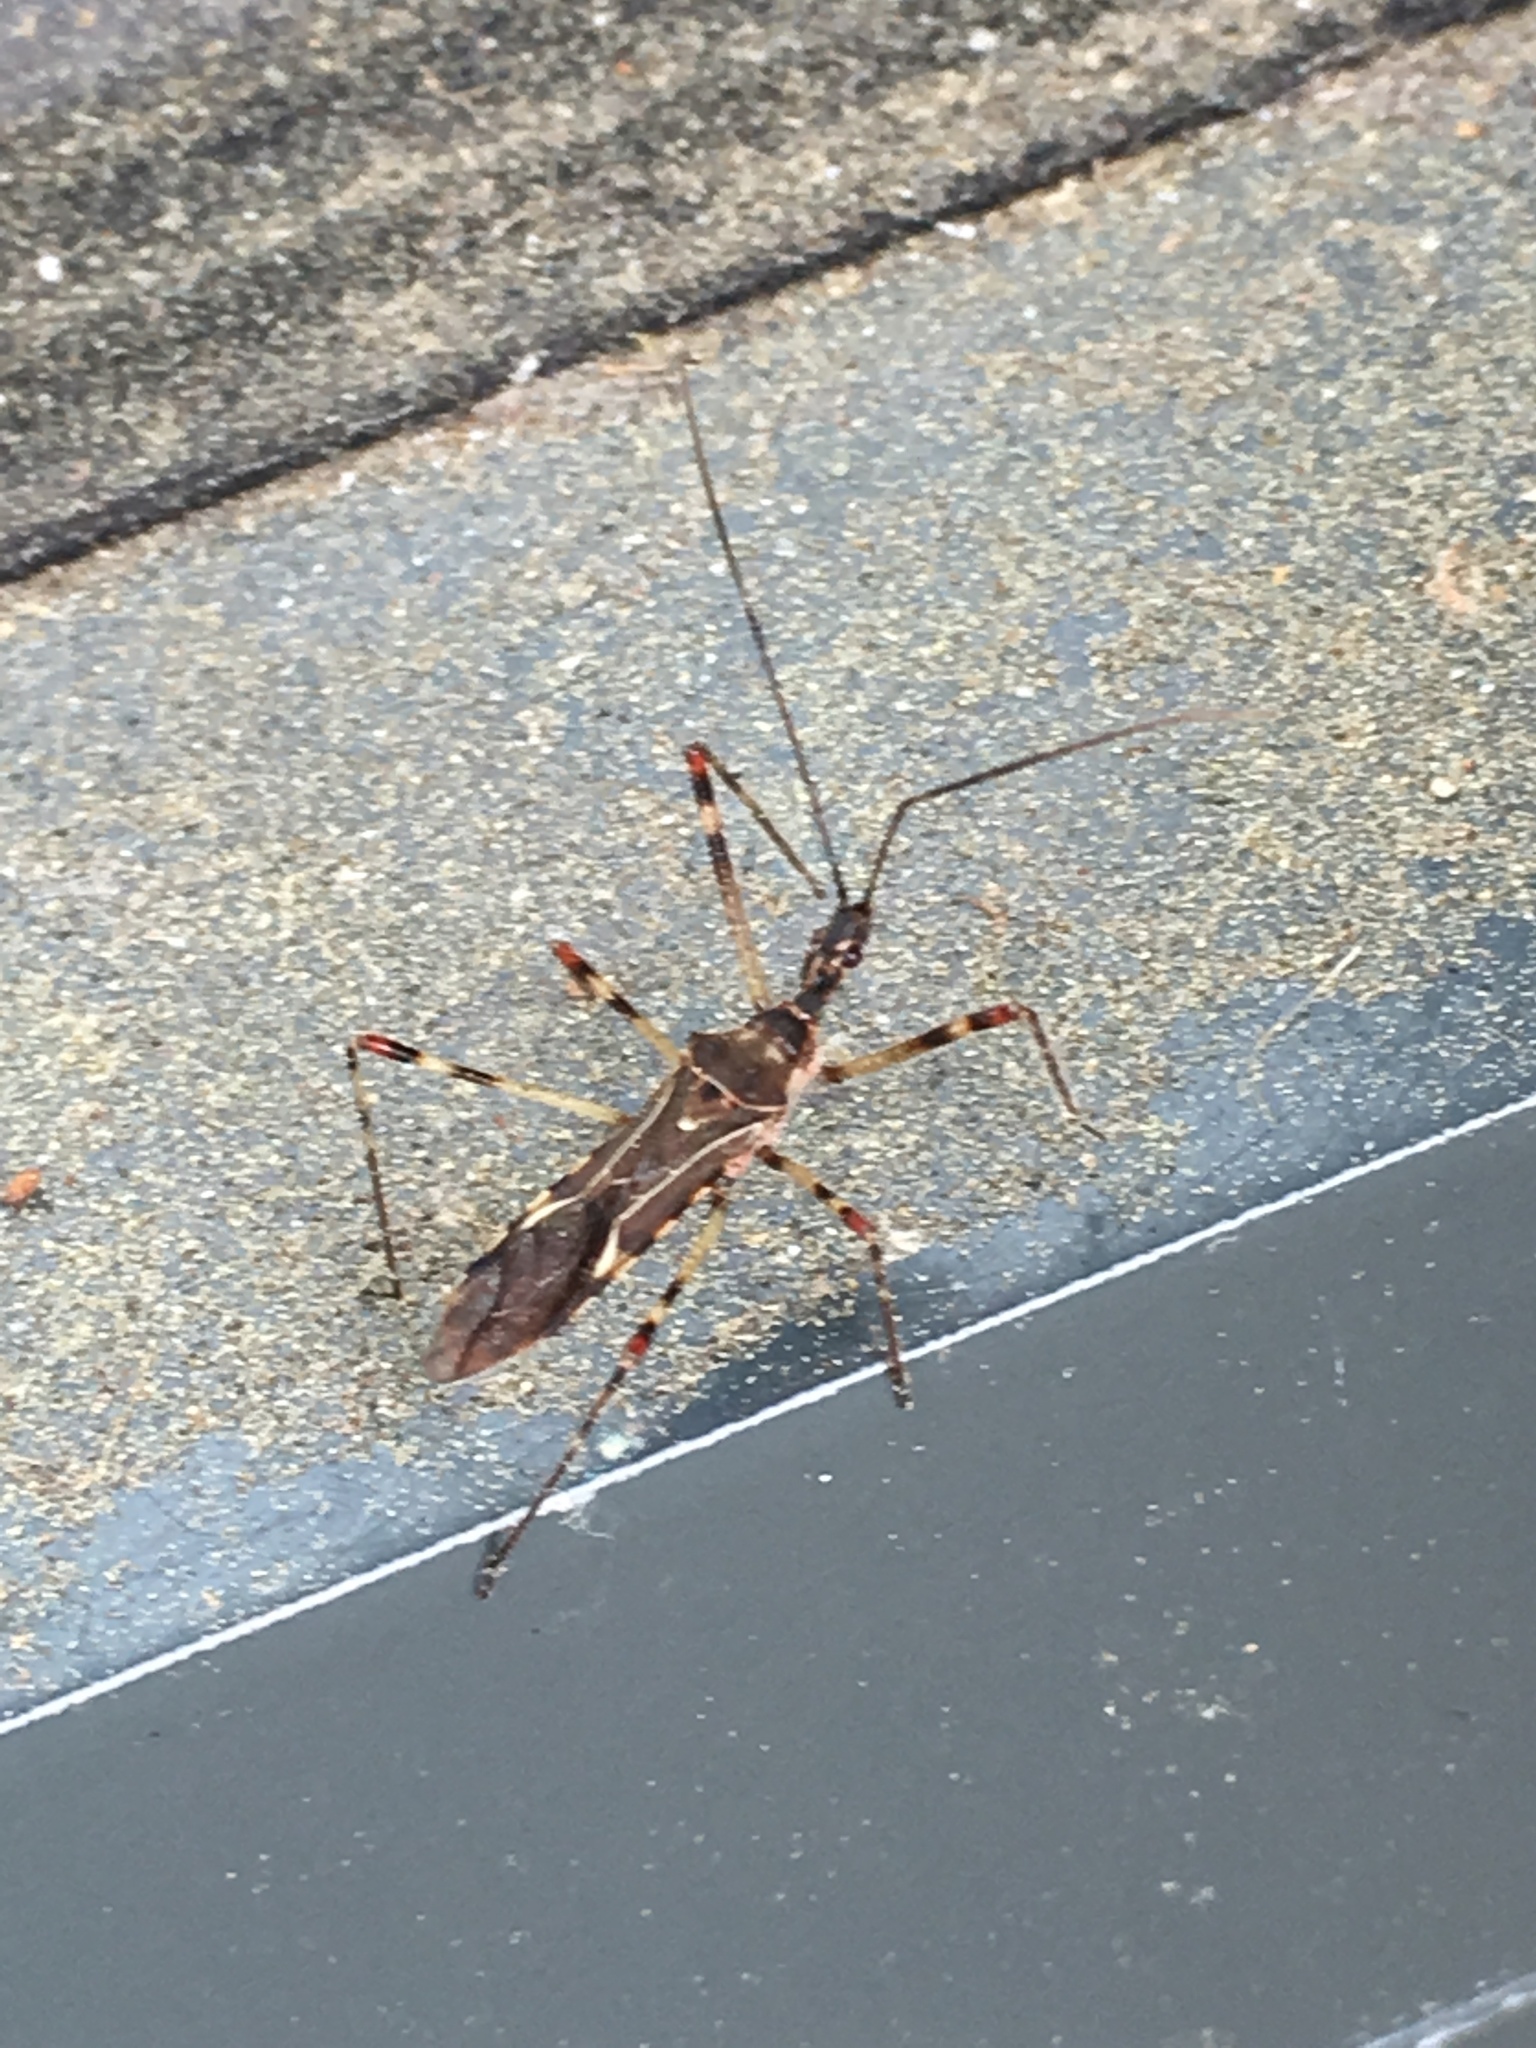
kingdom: Animalia
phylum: Arthropoda
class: Insecta
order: Hemiptera
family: Reduviidae
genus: Zelus
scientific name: Zelus tetracanthus
